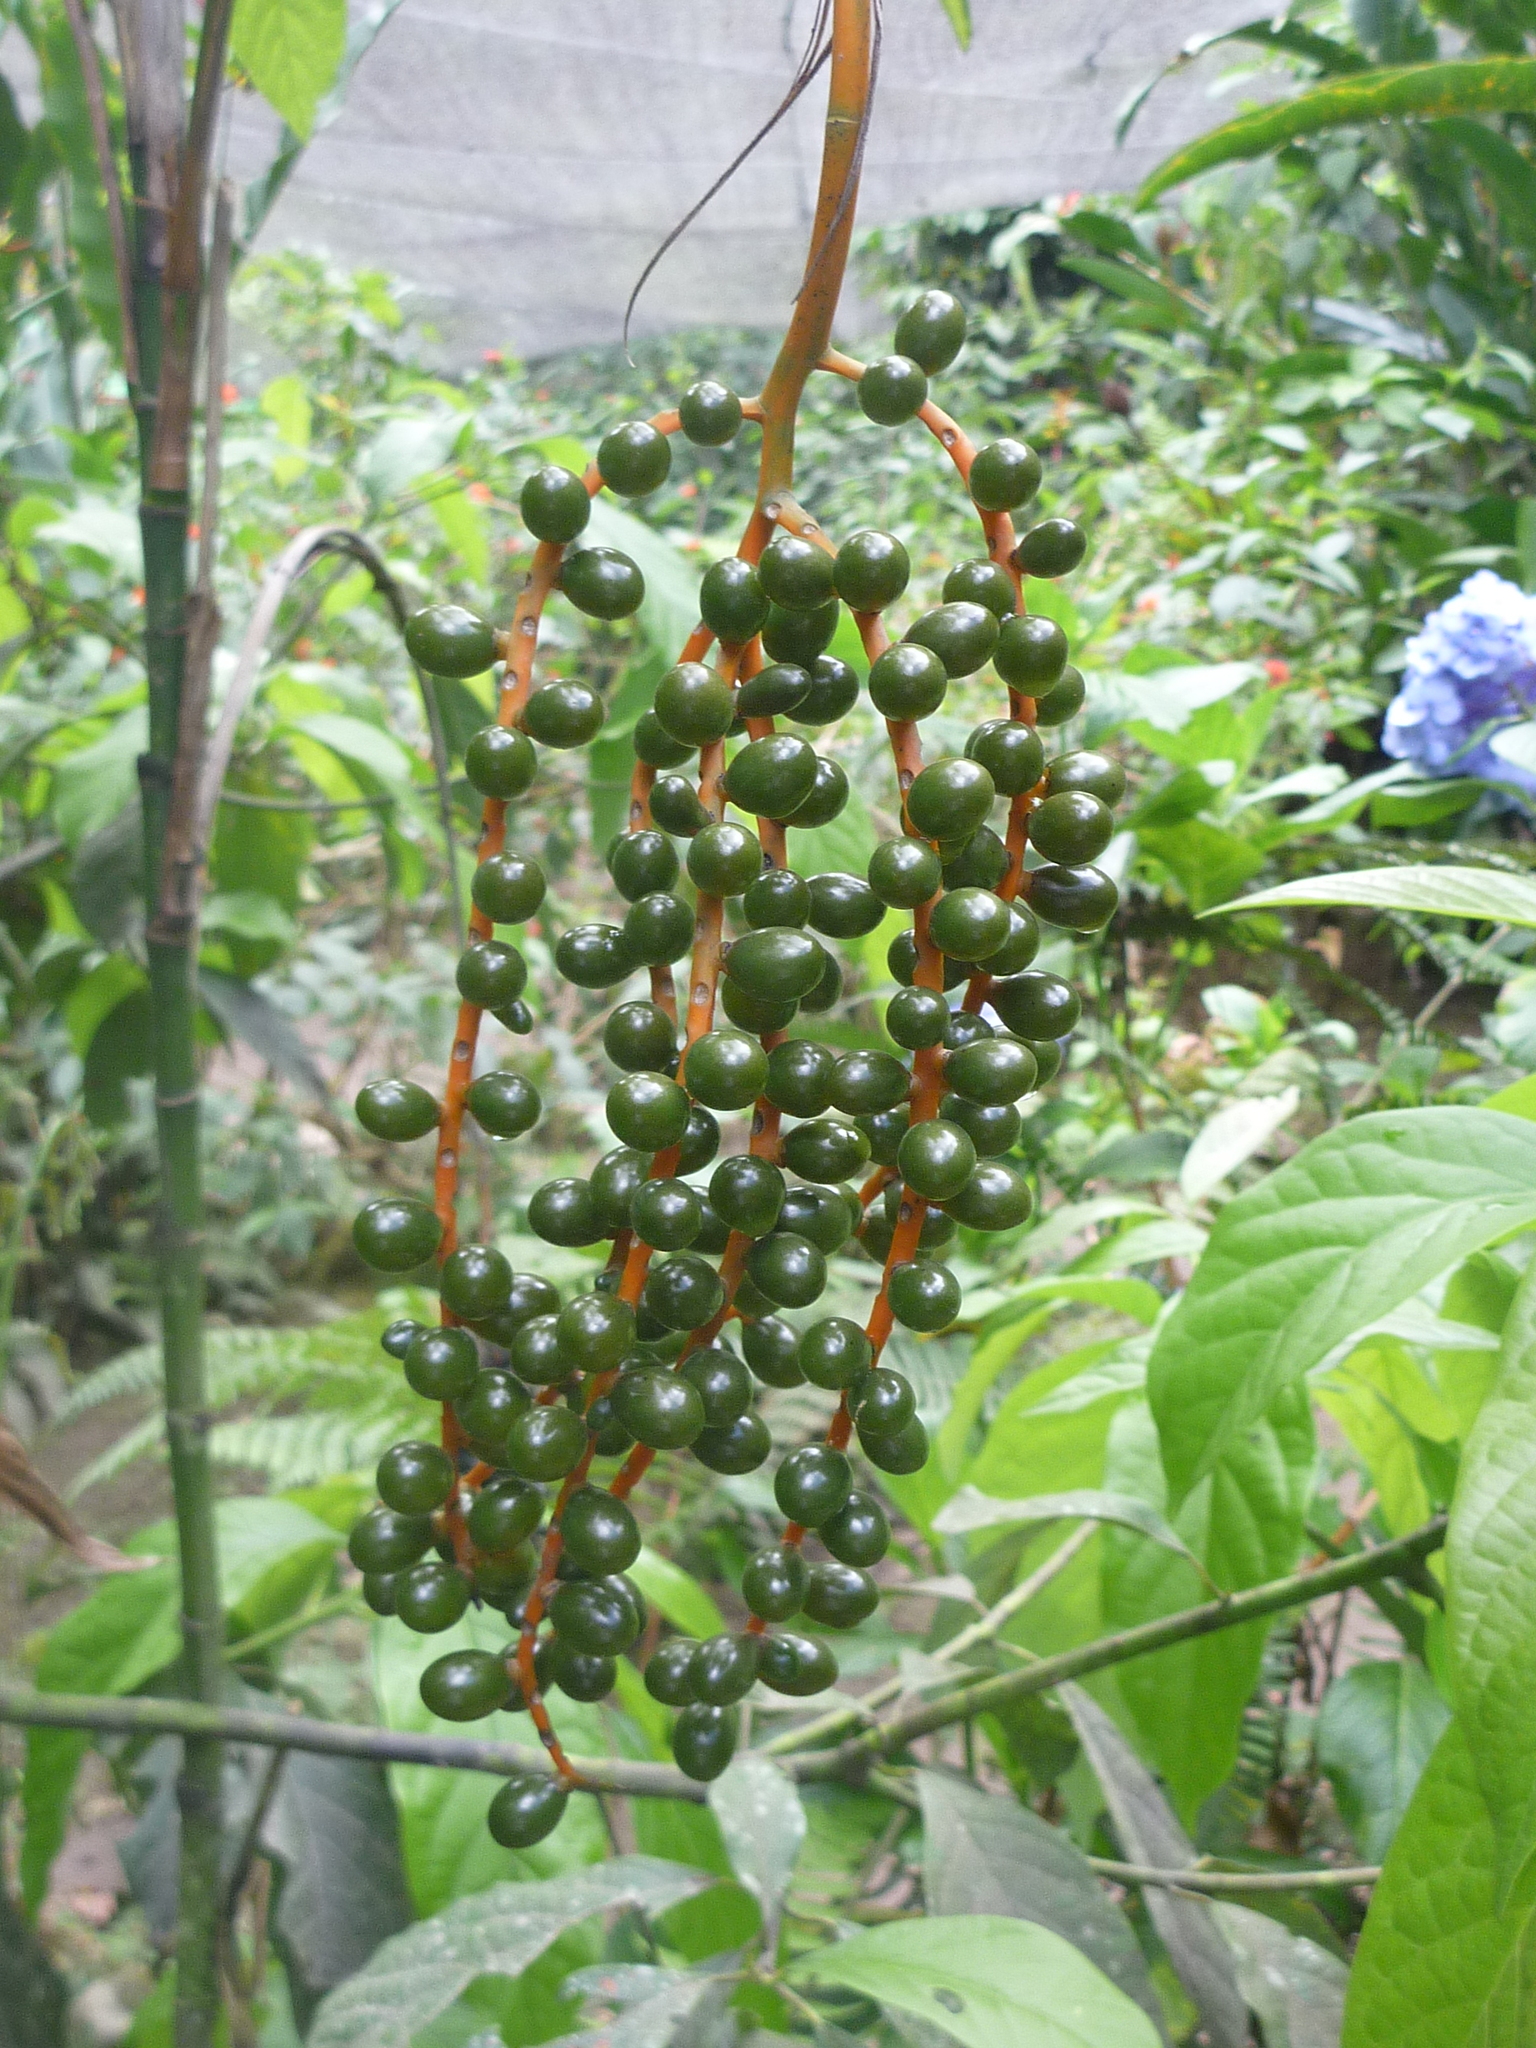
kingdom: Plantae
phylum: Tracheophyta
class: Liliopsida
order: Arecales
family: Arecaceae
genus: Chamaedorea
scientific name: Chamaedorea pinnatifrons
